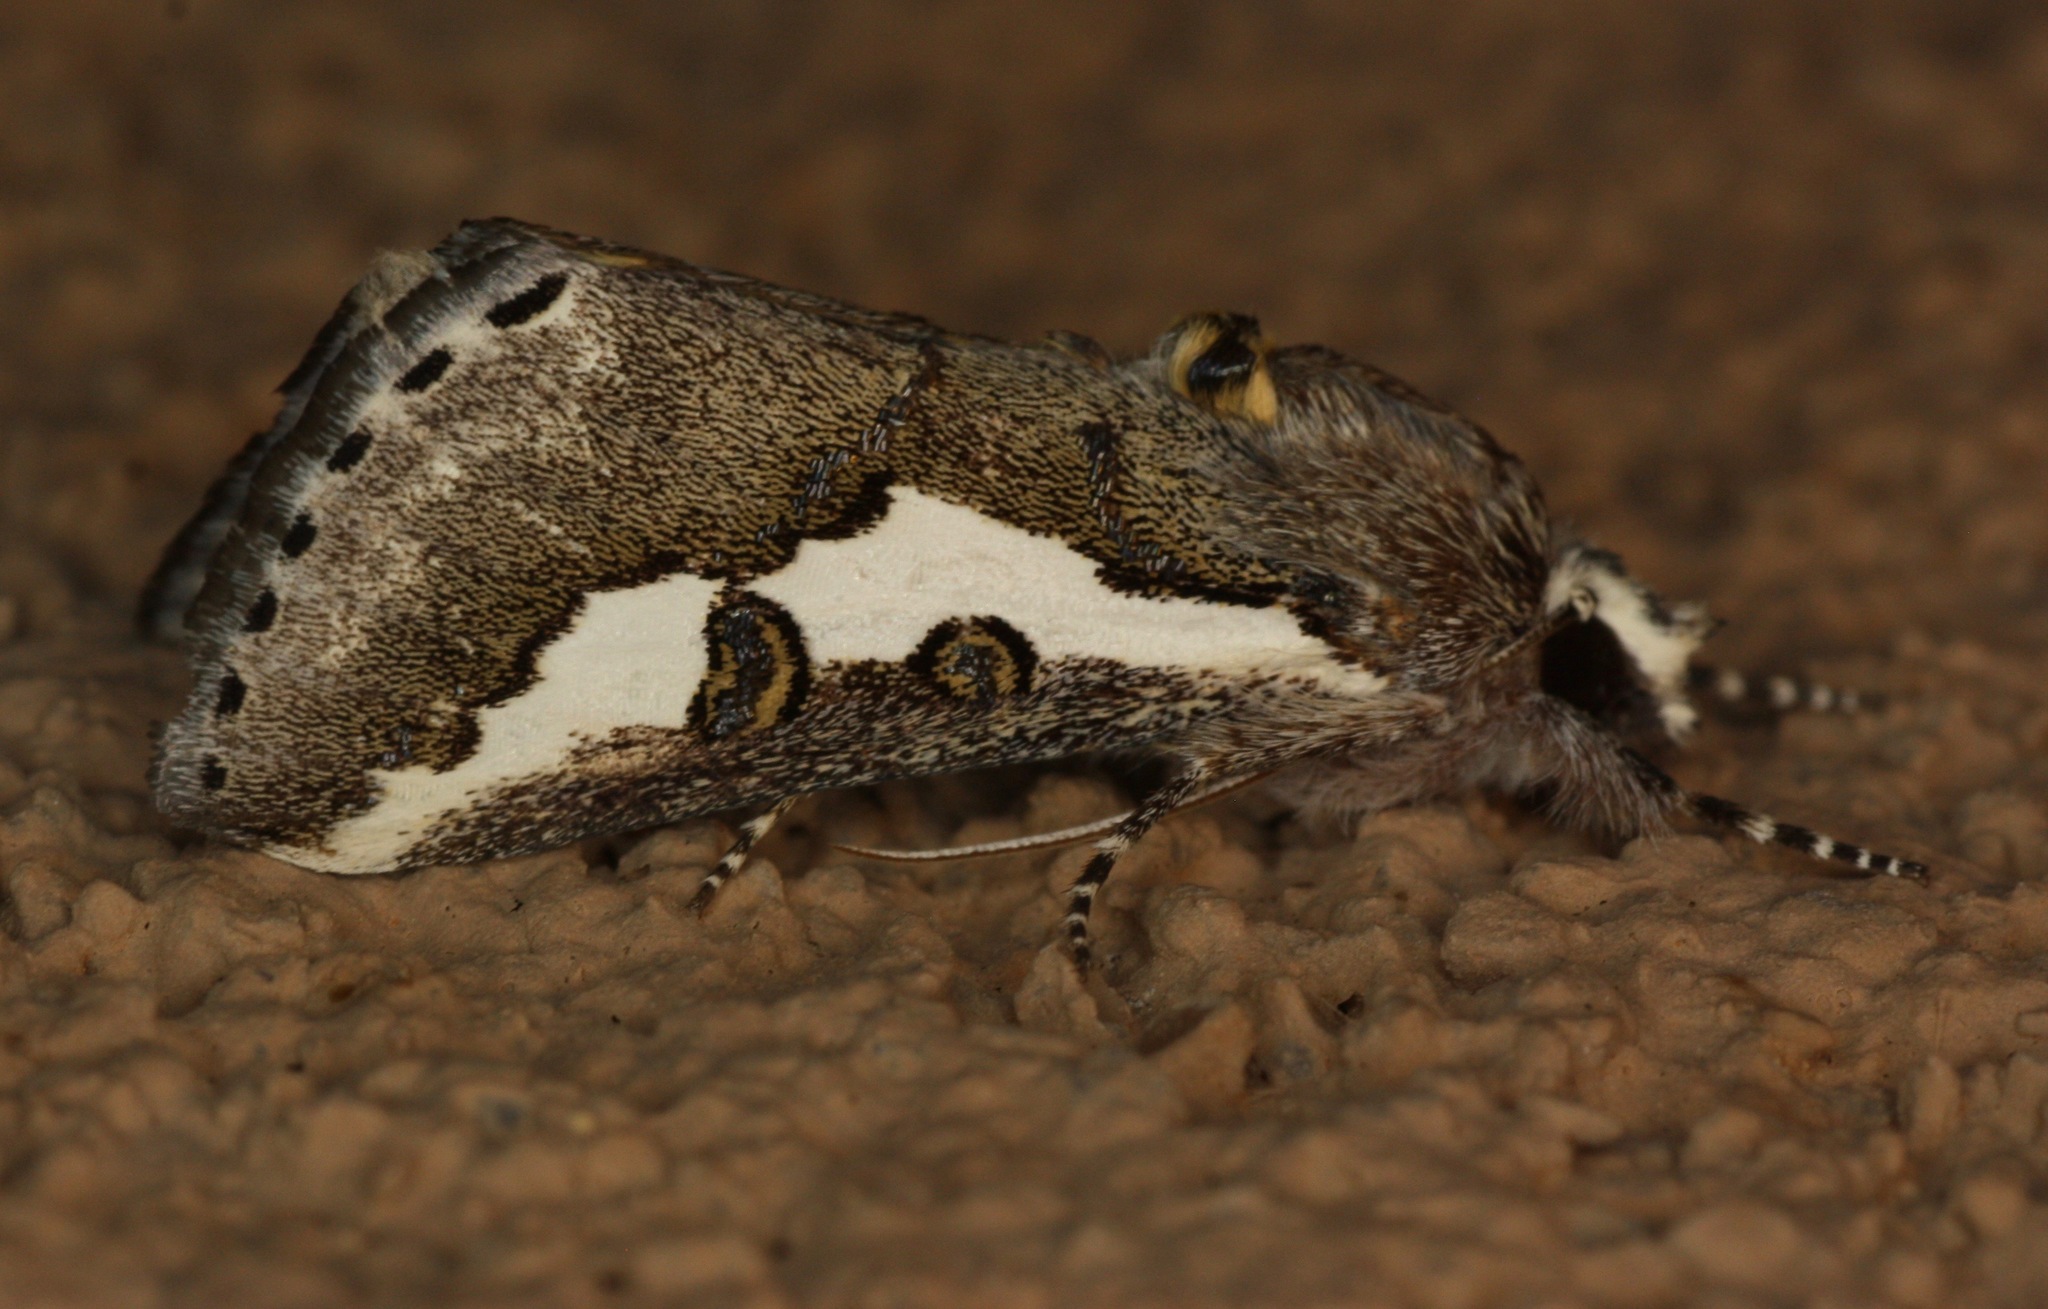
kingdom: Animalia
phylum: Arthropoda
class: Insecta
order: Lepidoptera
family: Noctuidae
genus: Euscirrhopterus
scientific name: Euscirrhopterus gloveri
